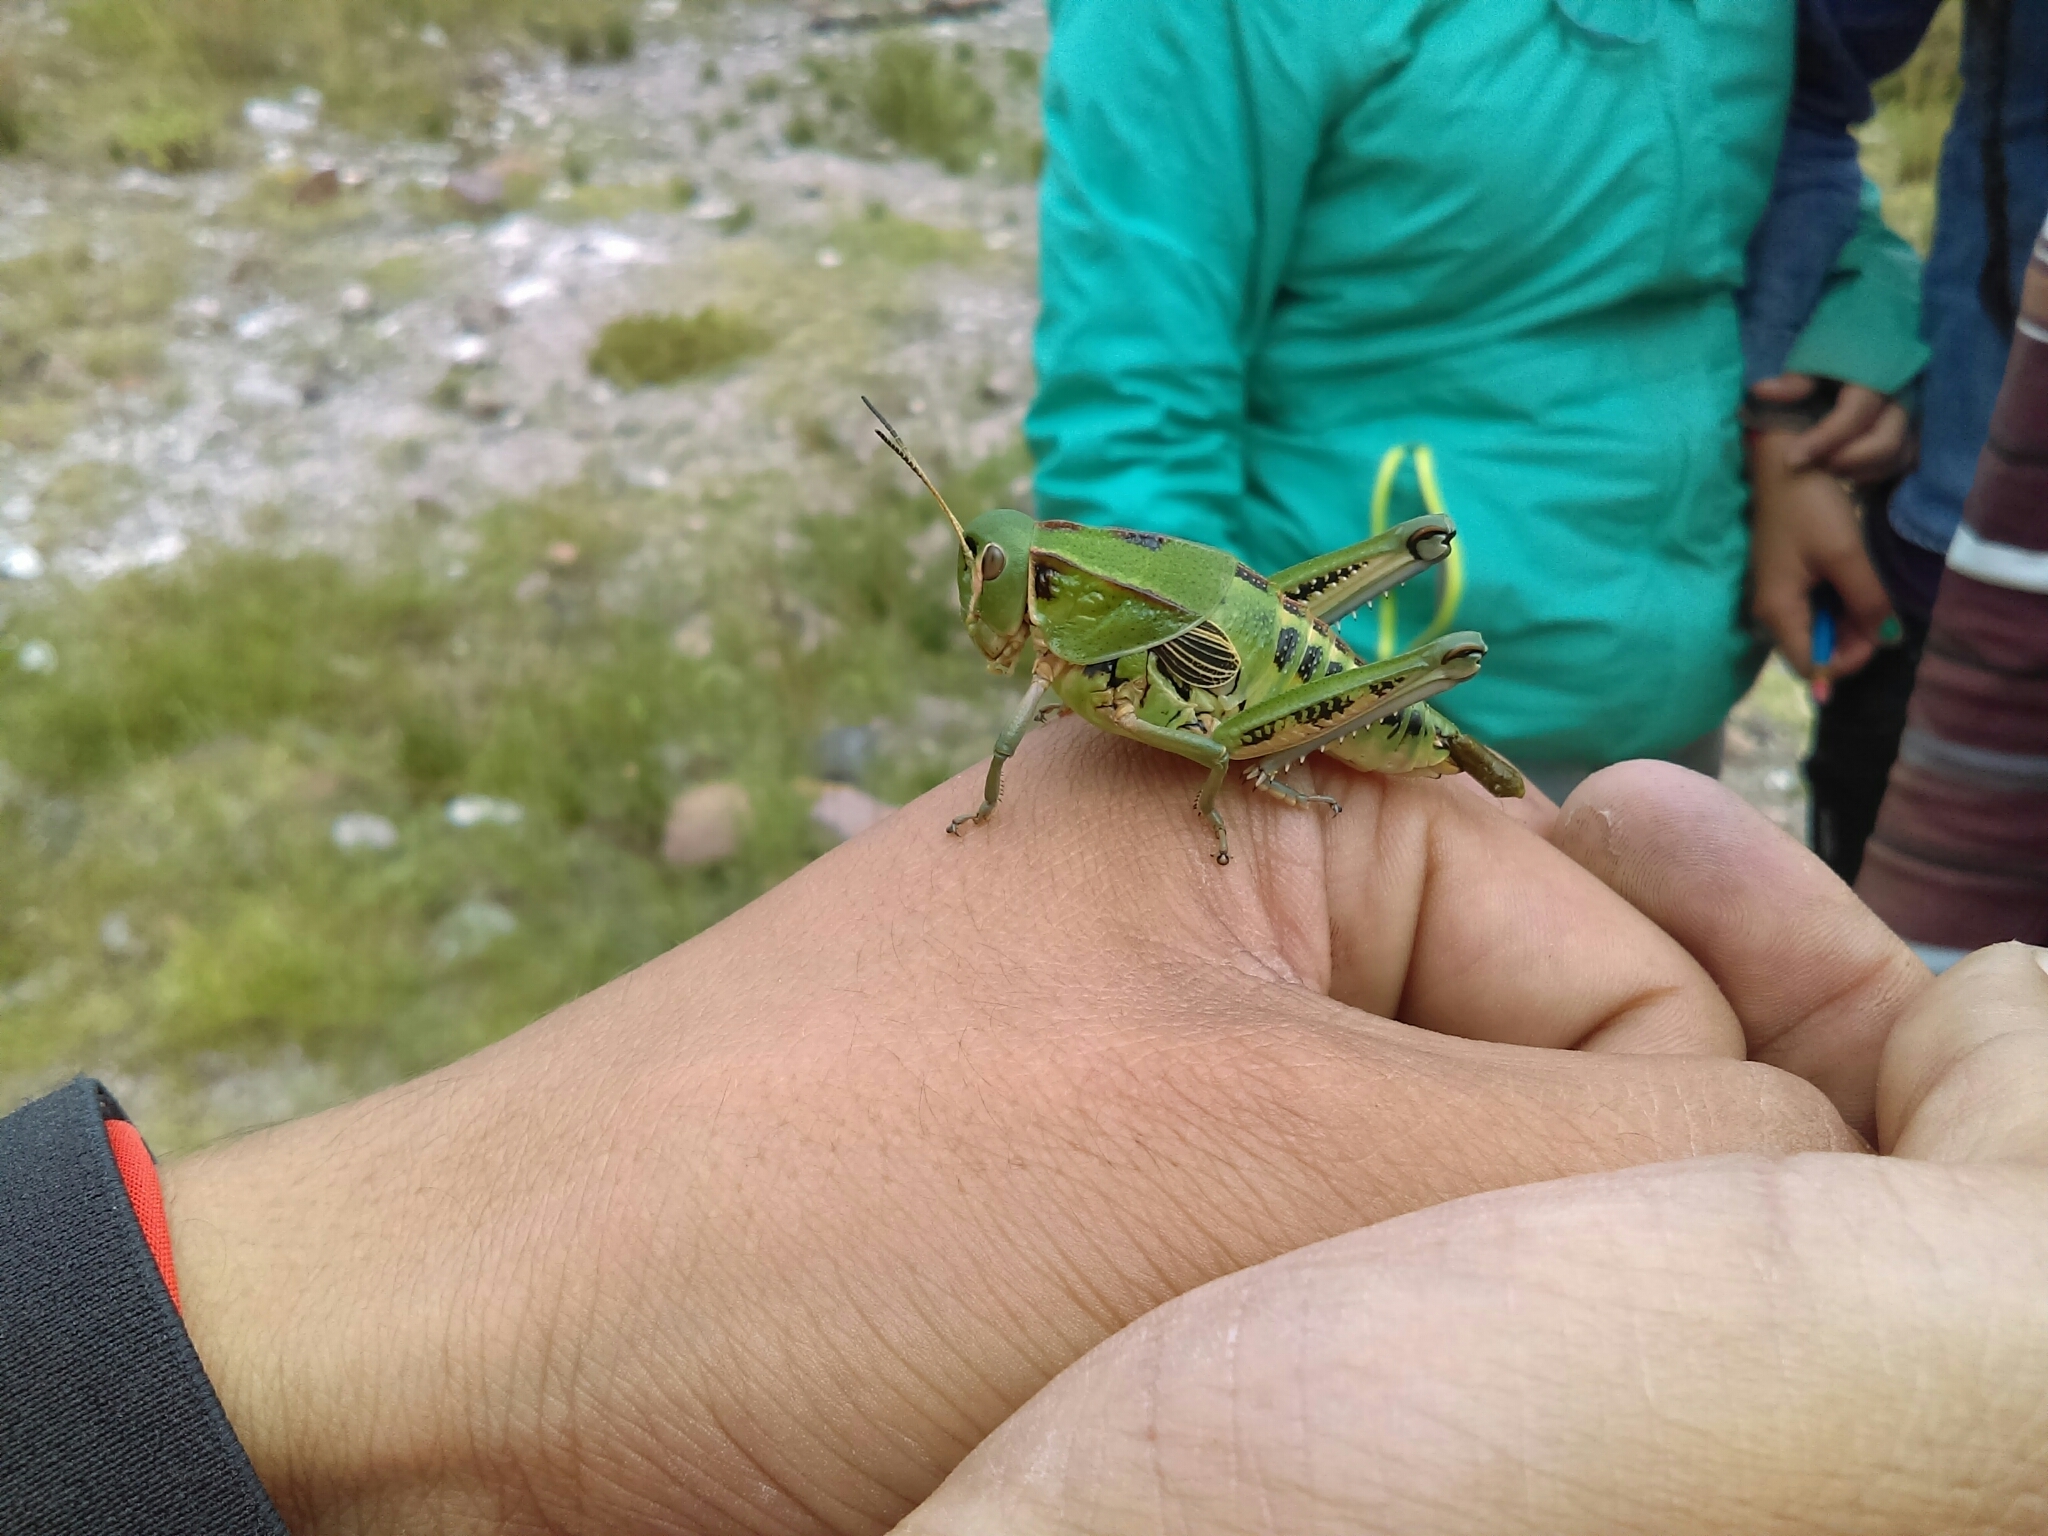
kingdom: Animalia
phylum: Arthropoda
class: Insecta
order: Orthoptera
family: Romaleidae
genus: Brachystola
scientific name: Brachystola mexicana
